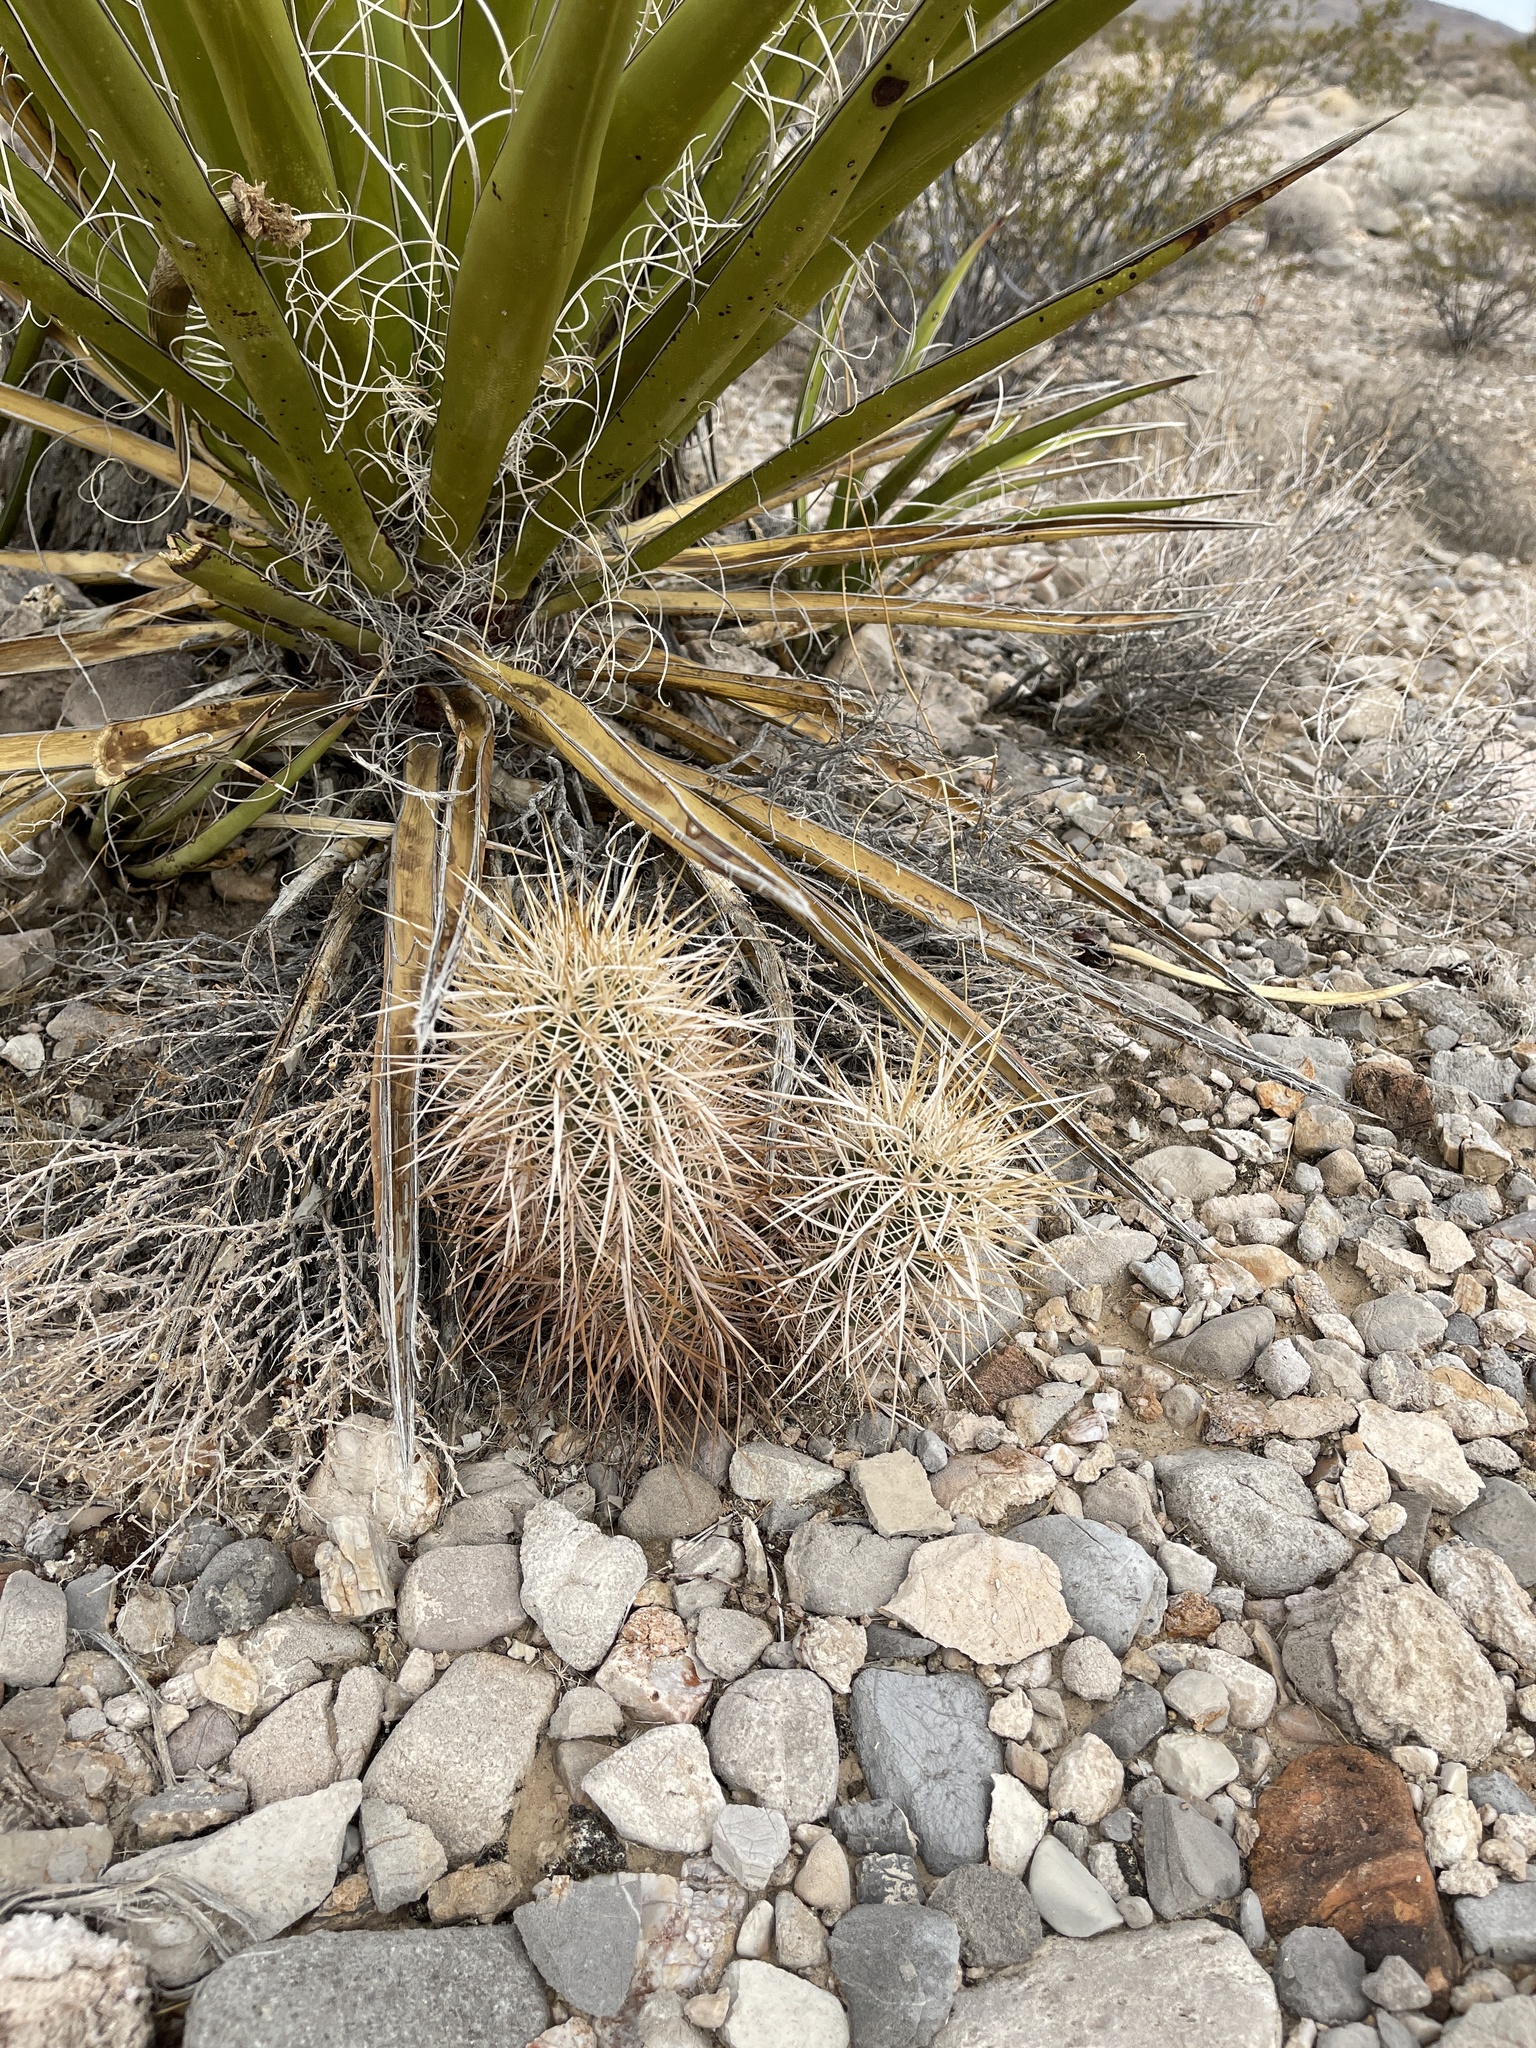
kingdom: Plantae
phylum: Tracheophyta
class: Magnoliopsida
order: Caryophyllales
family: Cactaceae
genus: Echinocereus
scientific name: Echinocereus engelmannii
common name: Engelmann's hedgehog cactus
